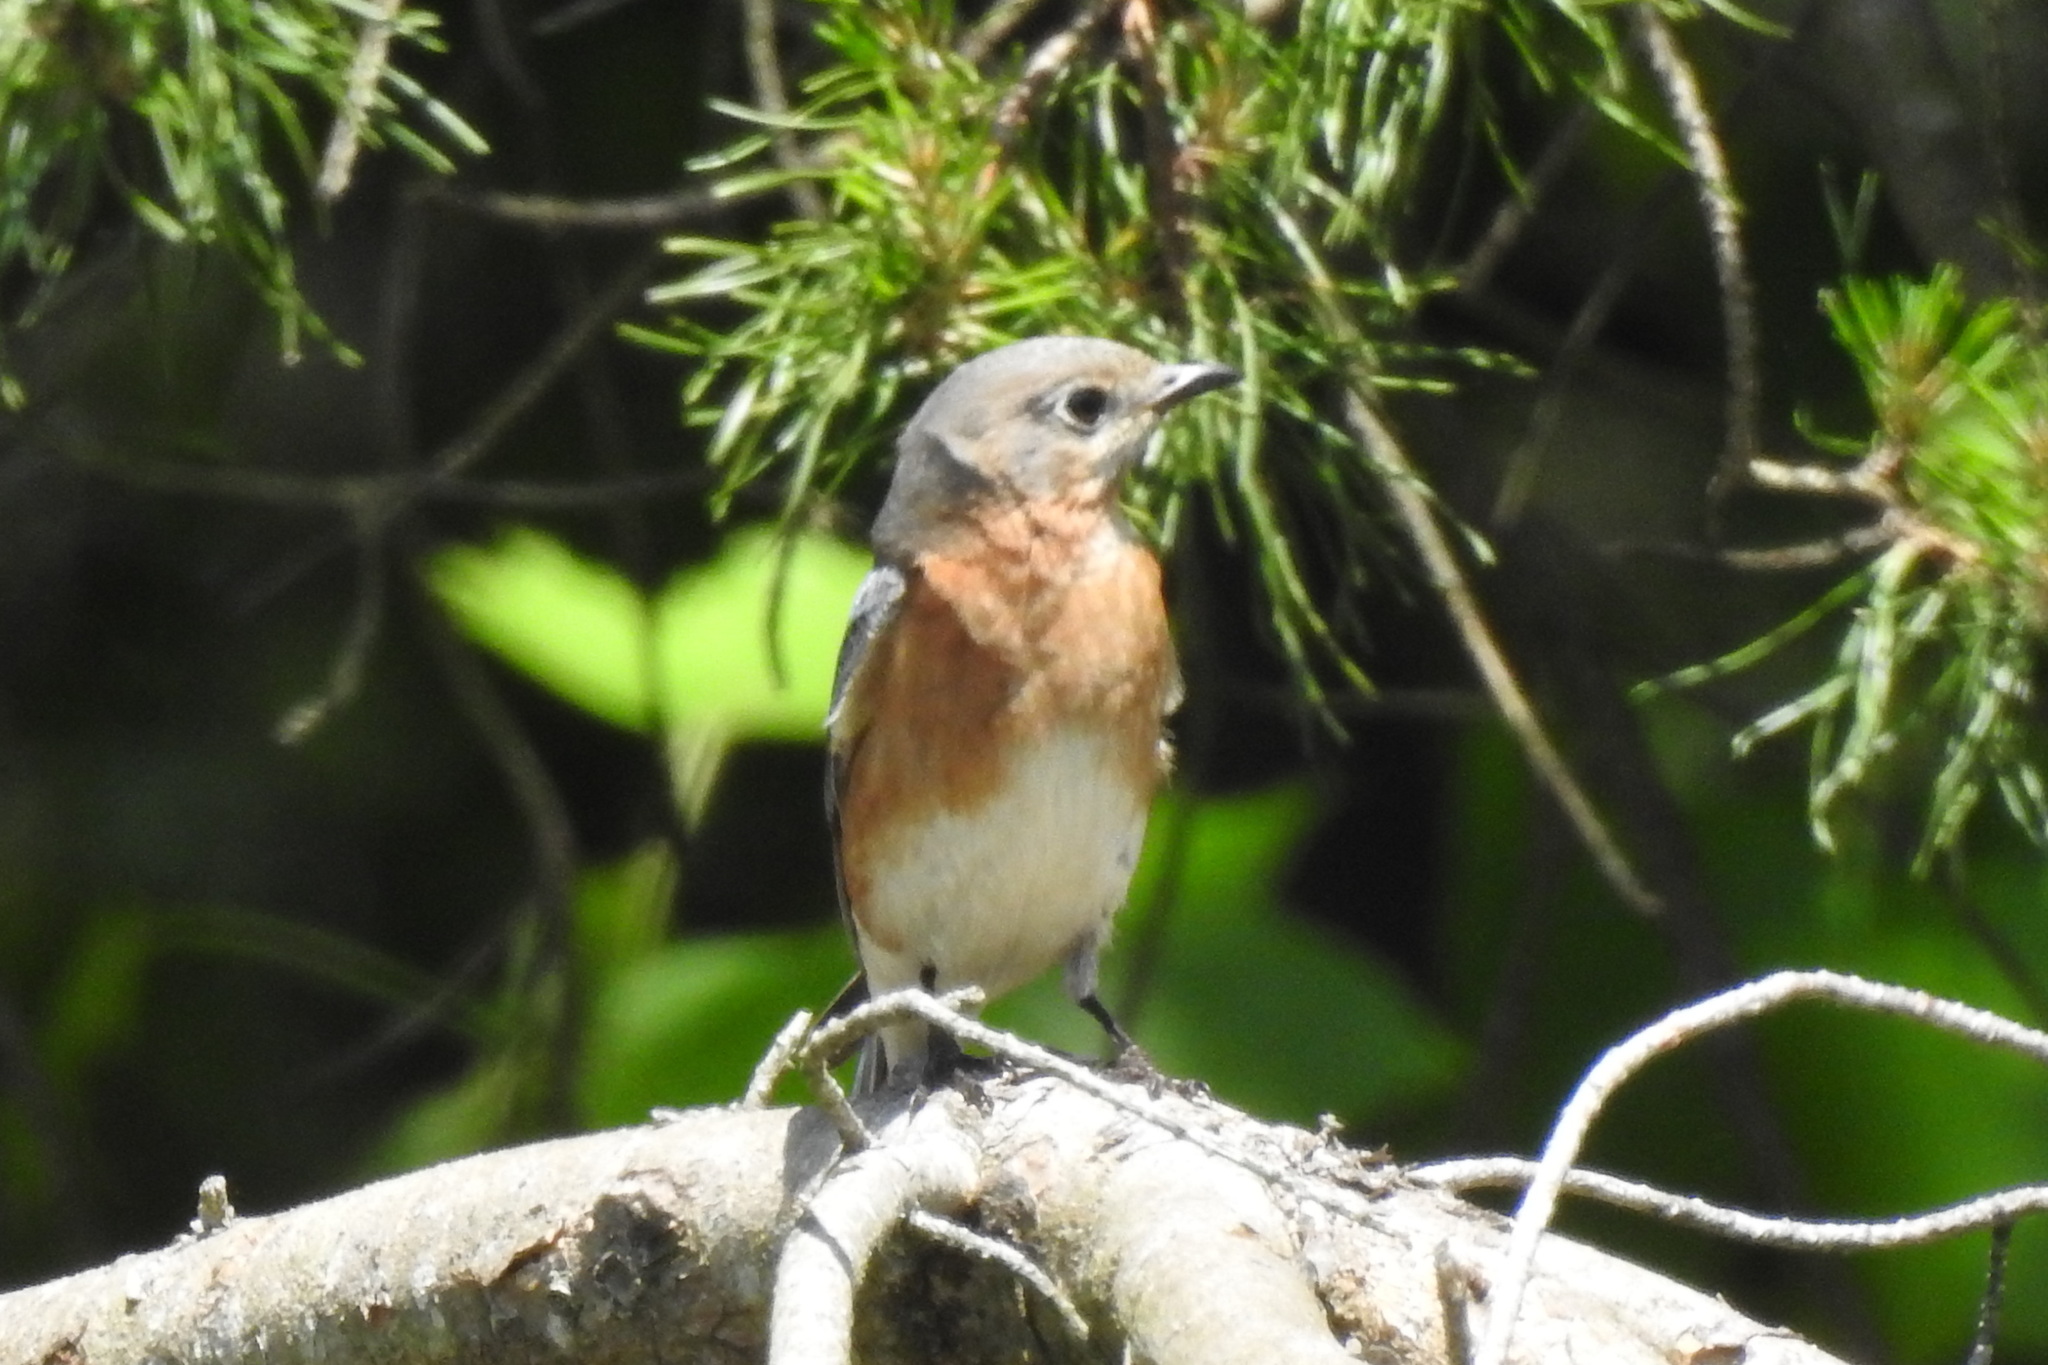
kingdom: Animalia
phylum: Chordata
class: Aves
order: Passeriformes
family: Turdidae
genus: Sialia
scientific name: Sialia sialis
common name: Eastern bluebird
